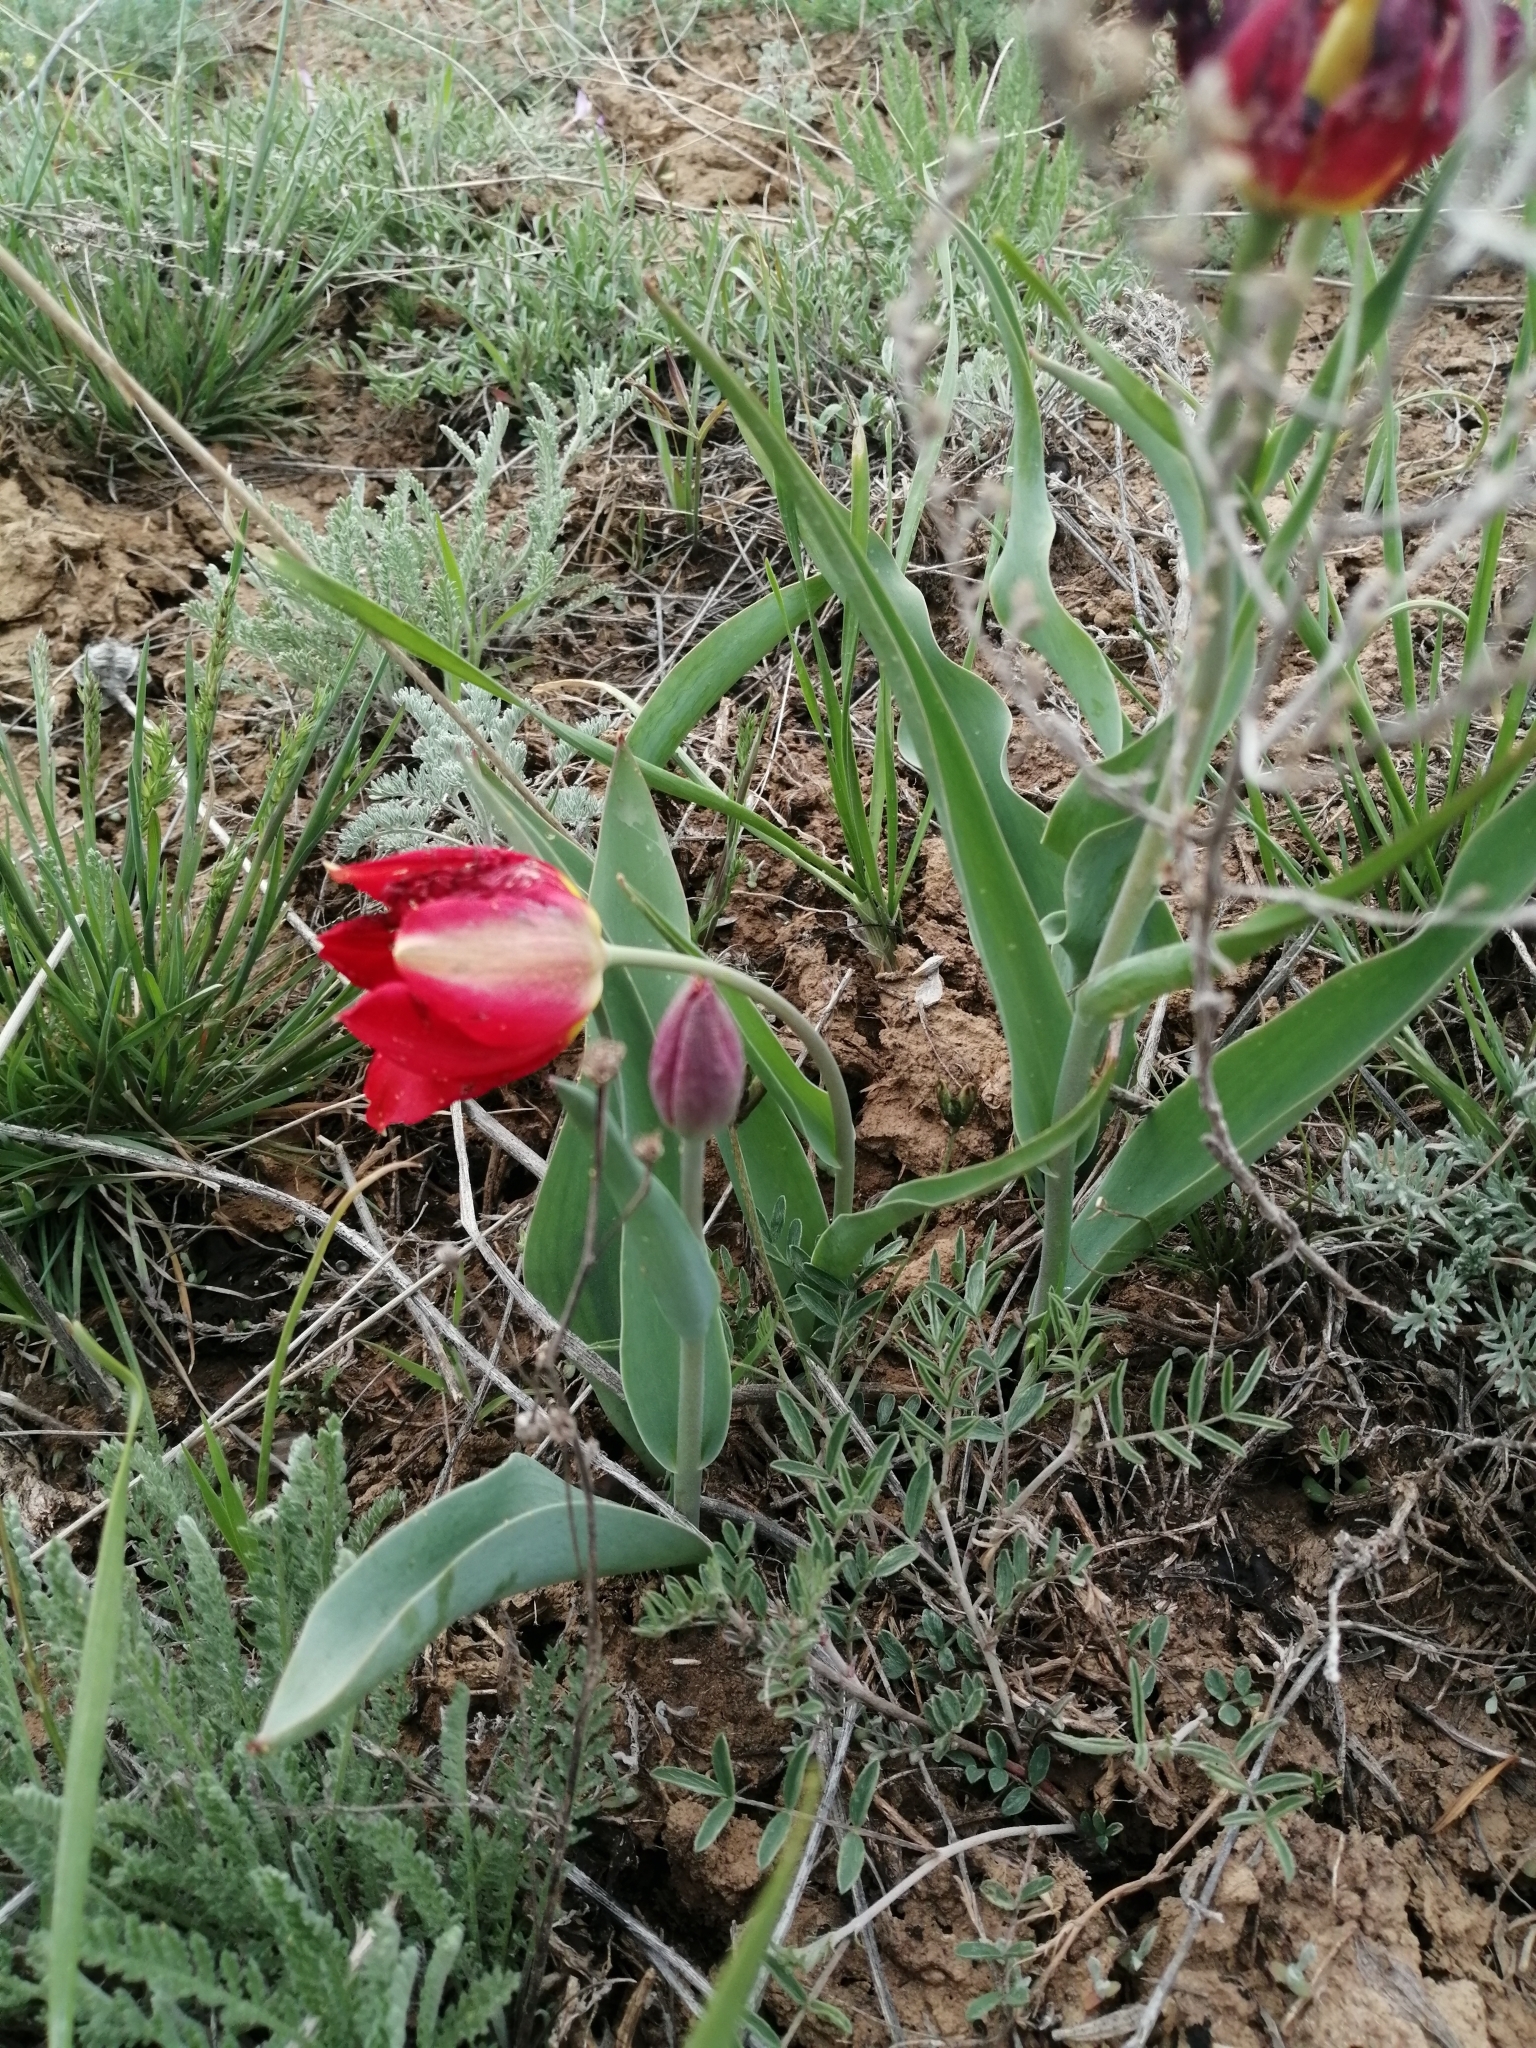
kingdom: Plantae
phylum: Tracheophyta
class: Liliopsida
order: Liliales
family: Liliaceae
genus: Tulipa
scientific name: Tulipa suaveolens
